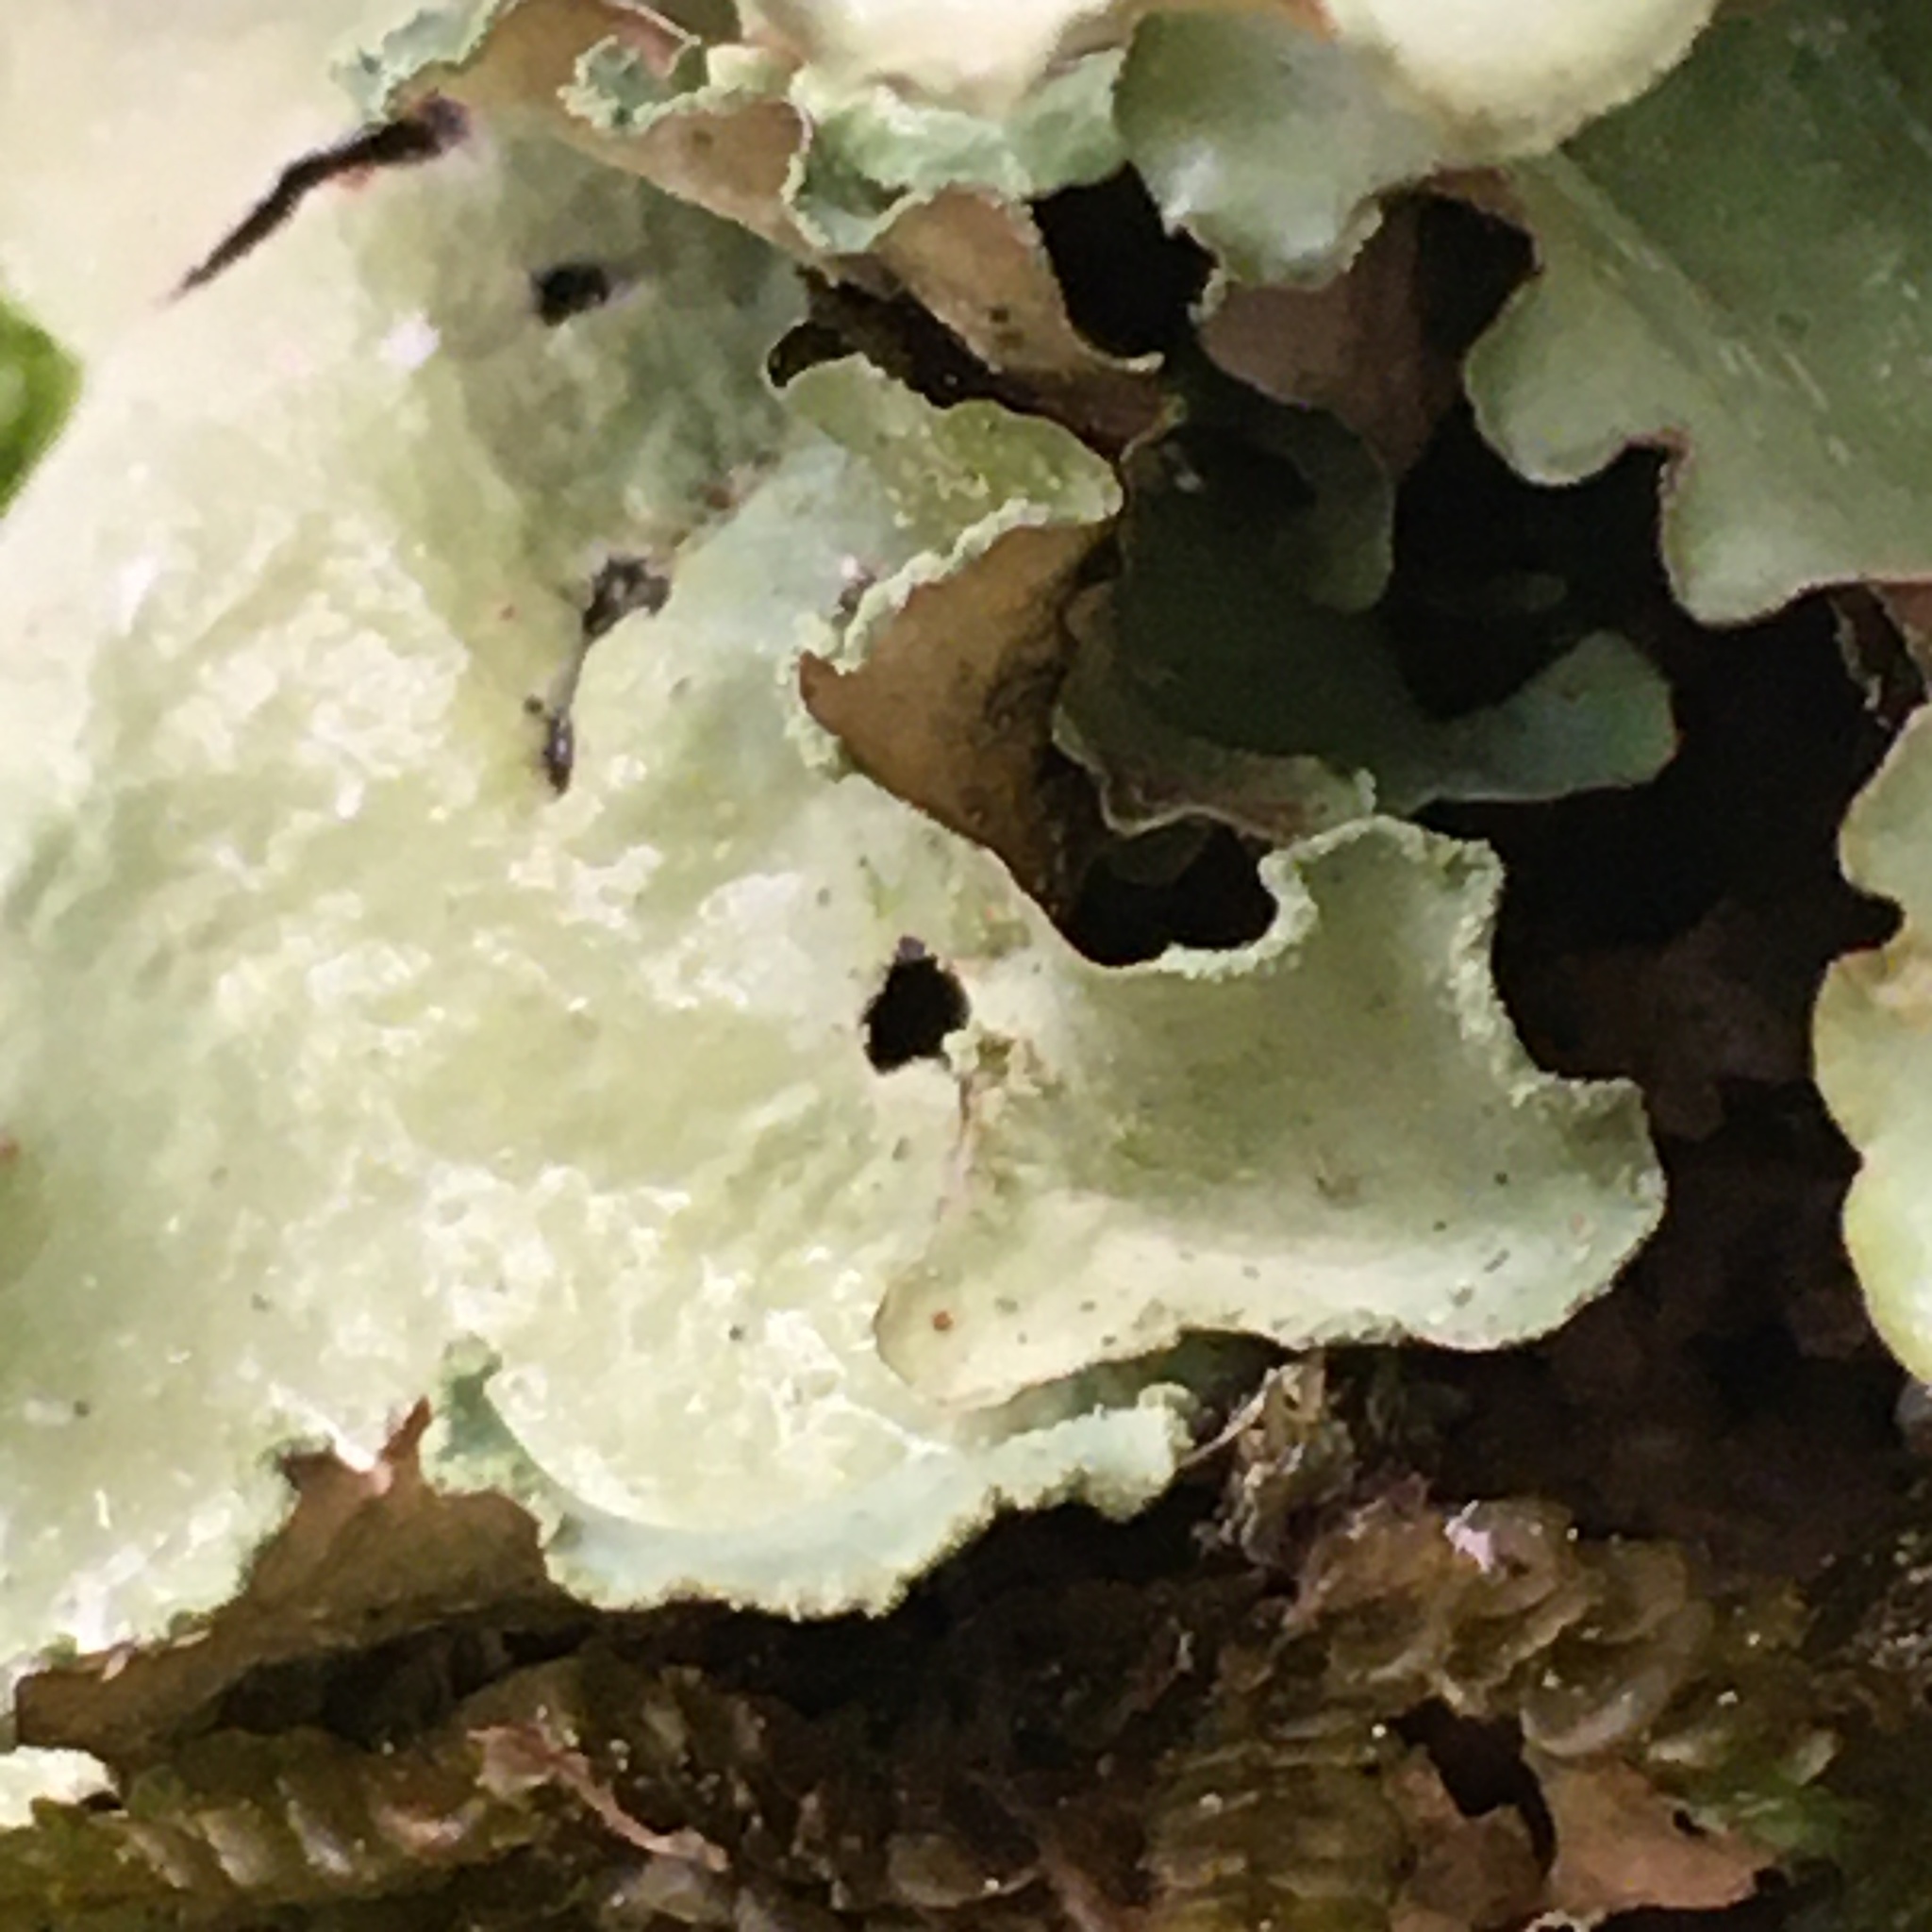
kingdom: Fungi
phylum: Ascomycota
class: Lecanoromycetes
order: Lecanorales
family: Parmeliaceae
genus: Cetrelia
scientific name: Cetrelia cetrarioides
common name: Speckled iceland lichen
